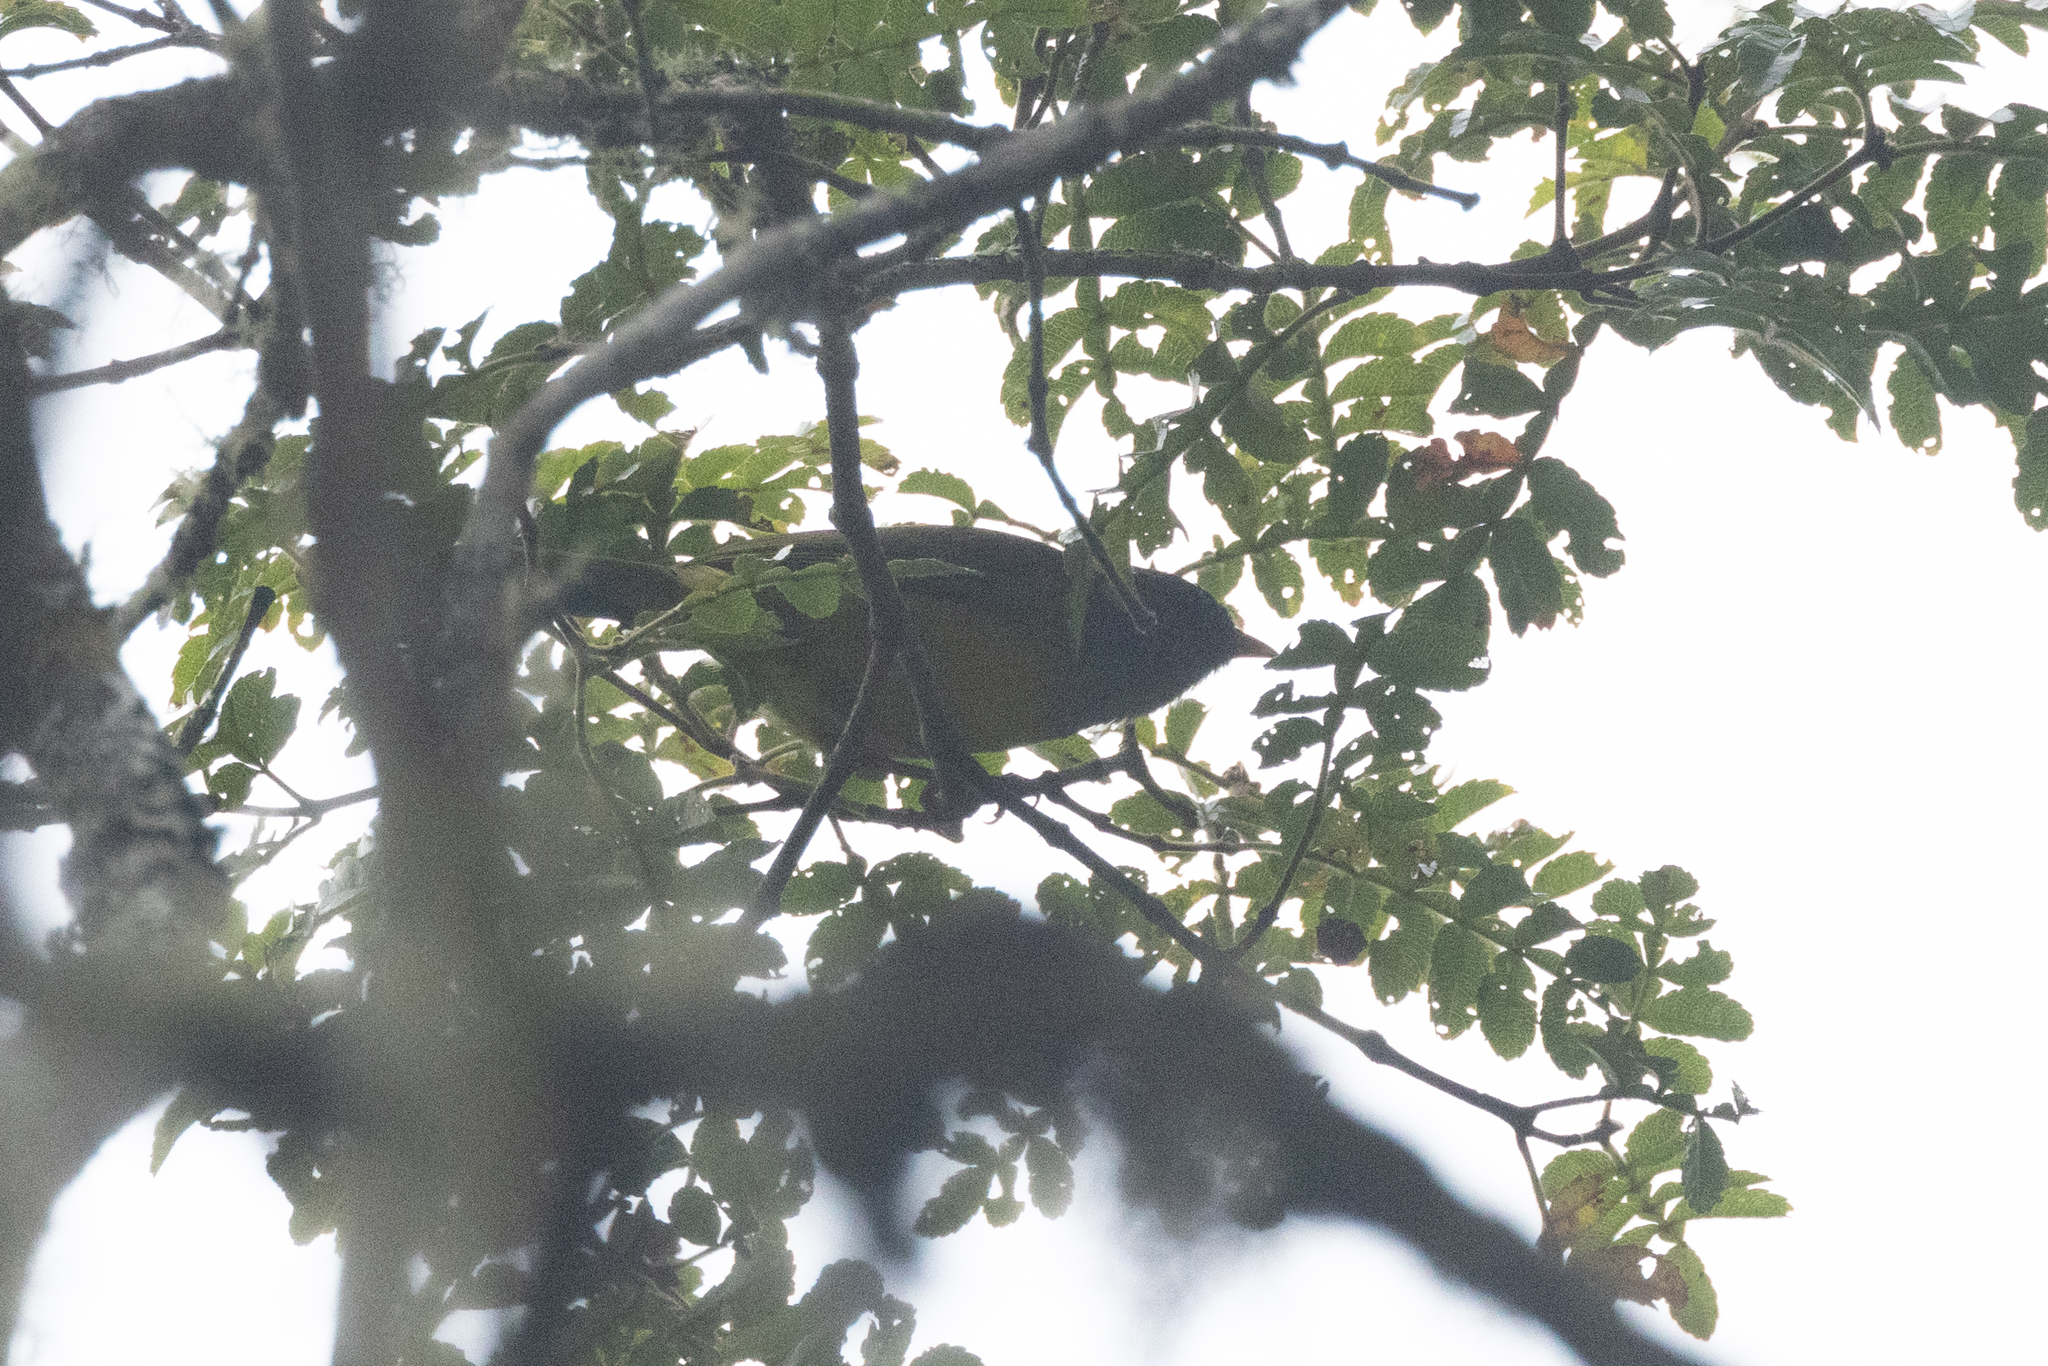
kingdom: Animalia
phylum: Chordata
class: Aves
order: Passeriformes
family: Thraupidae
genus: Cnemoscopus
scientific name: Cnemoscopus rubrirostris
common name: Grey-hooded bush tanager
